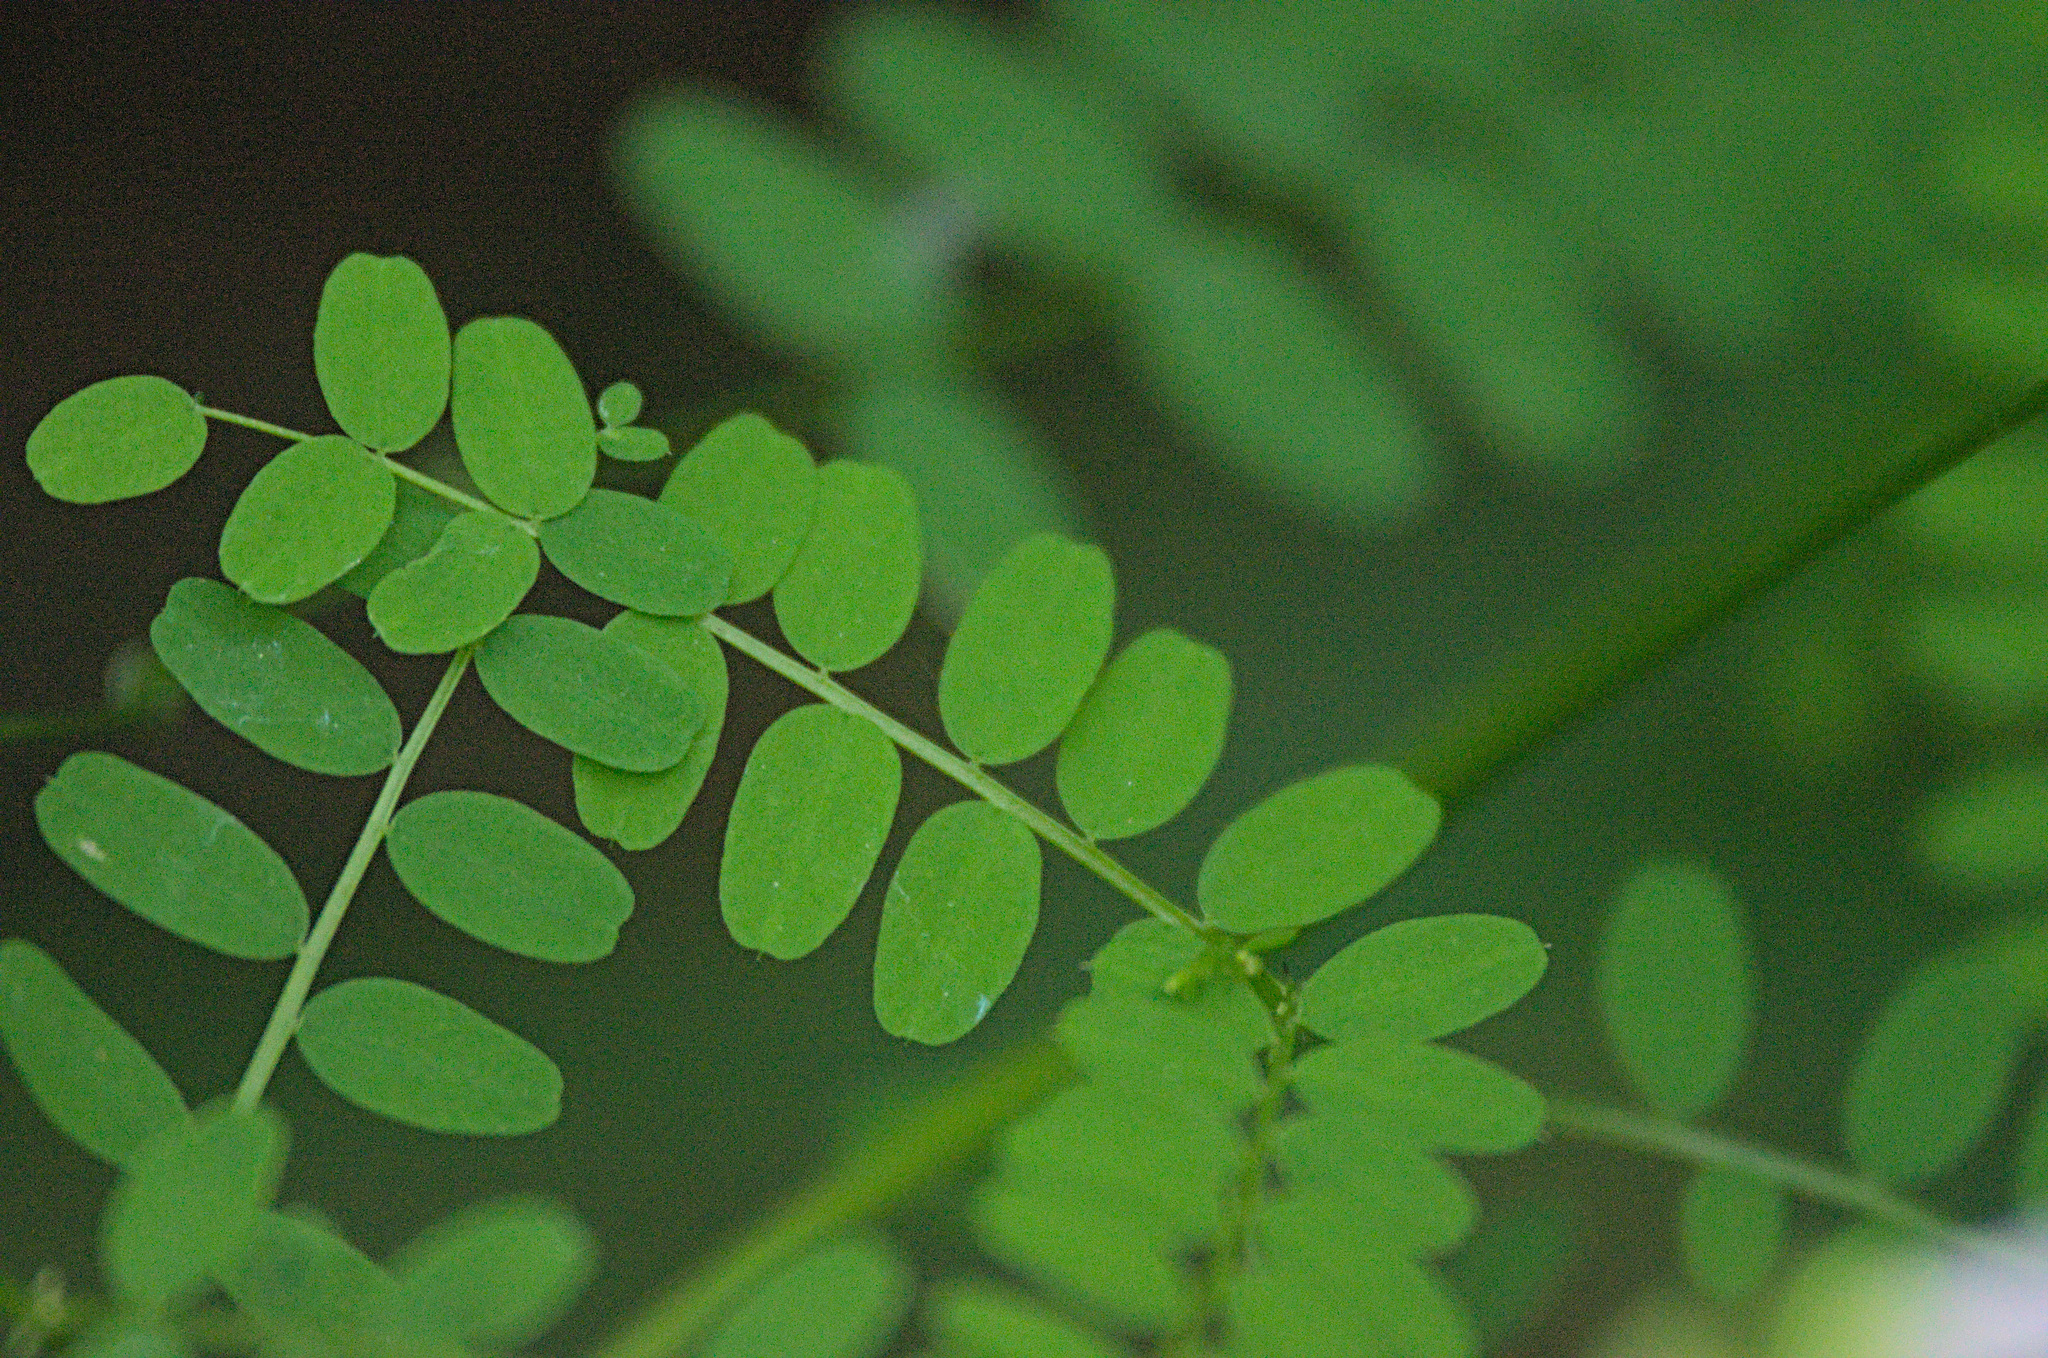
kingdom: Plantae
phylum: Tracheophyta
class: Magnoliopsida
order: Fabales
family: Fabaceae
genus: Vicia
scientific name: Vicia sylvatica
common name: Wood vetch
